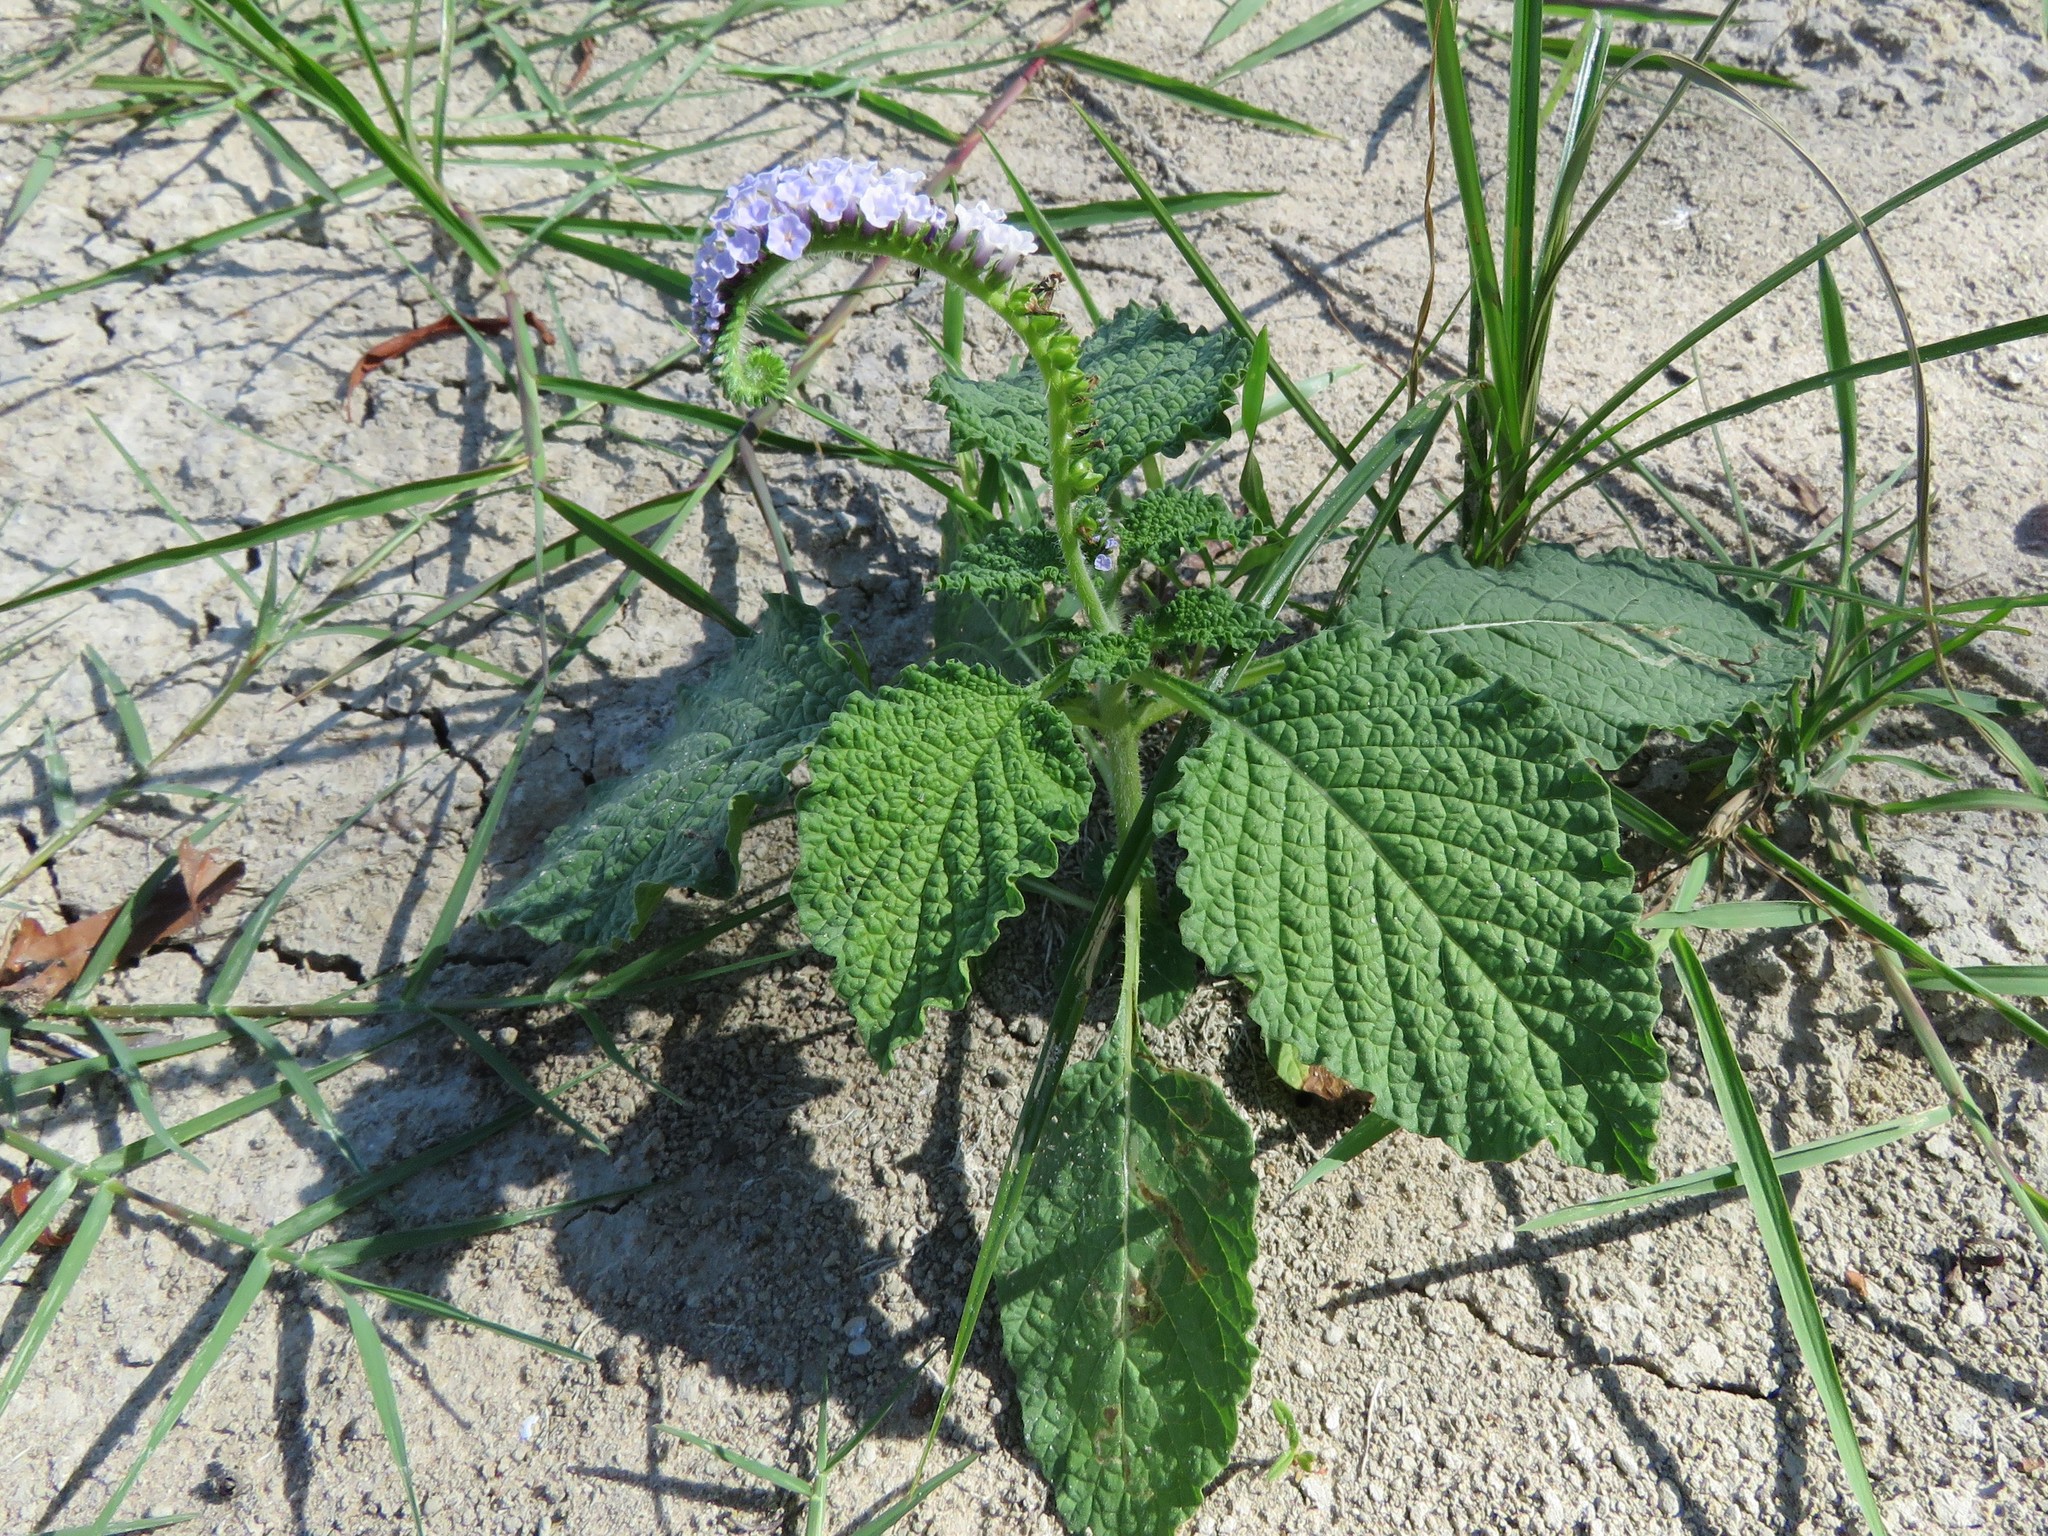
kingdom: Plantae
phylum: Tracheophyta
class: Magnoliopsida
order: Boraginales
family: Heliotropiaceae
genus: Heliotropium
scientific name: Heliotropium indicum
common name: Indian heliotrope
